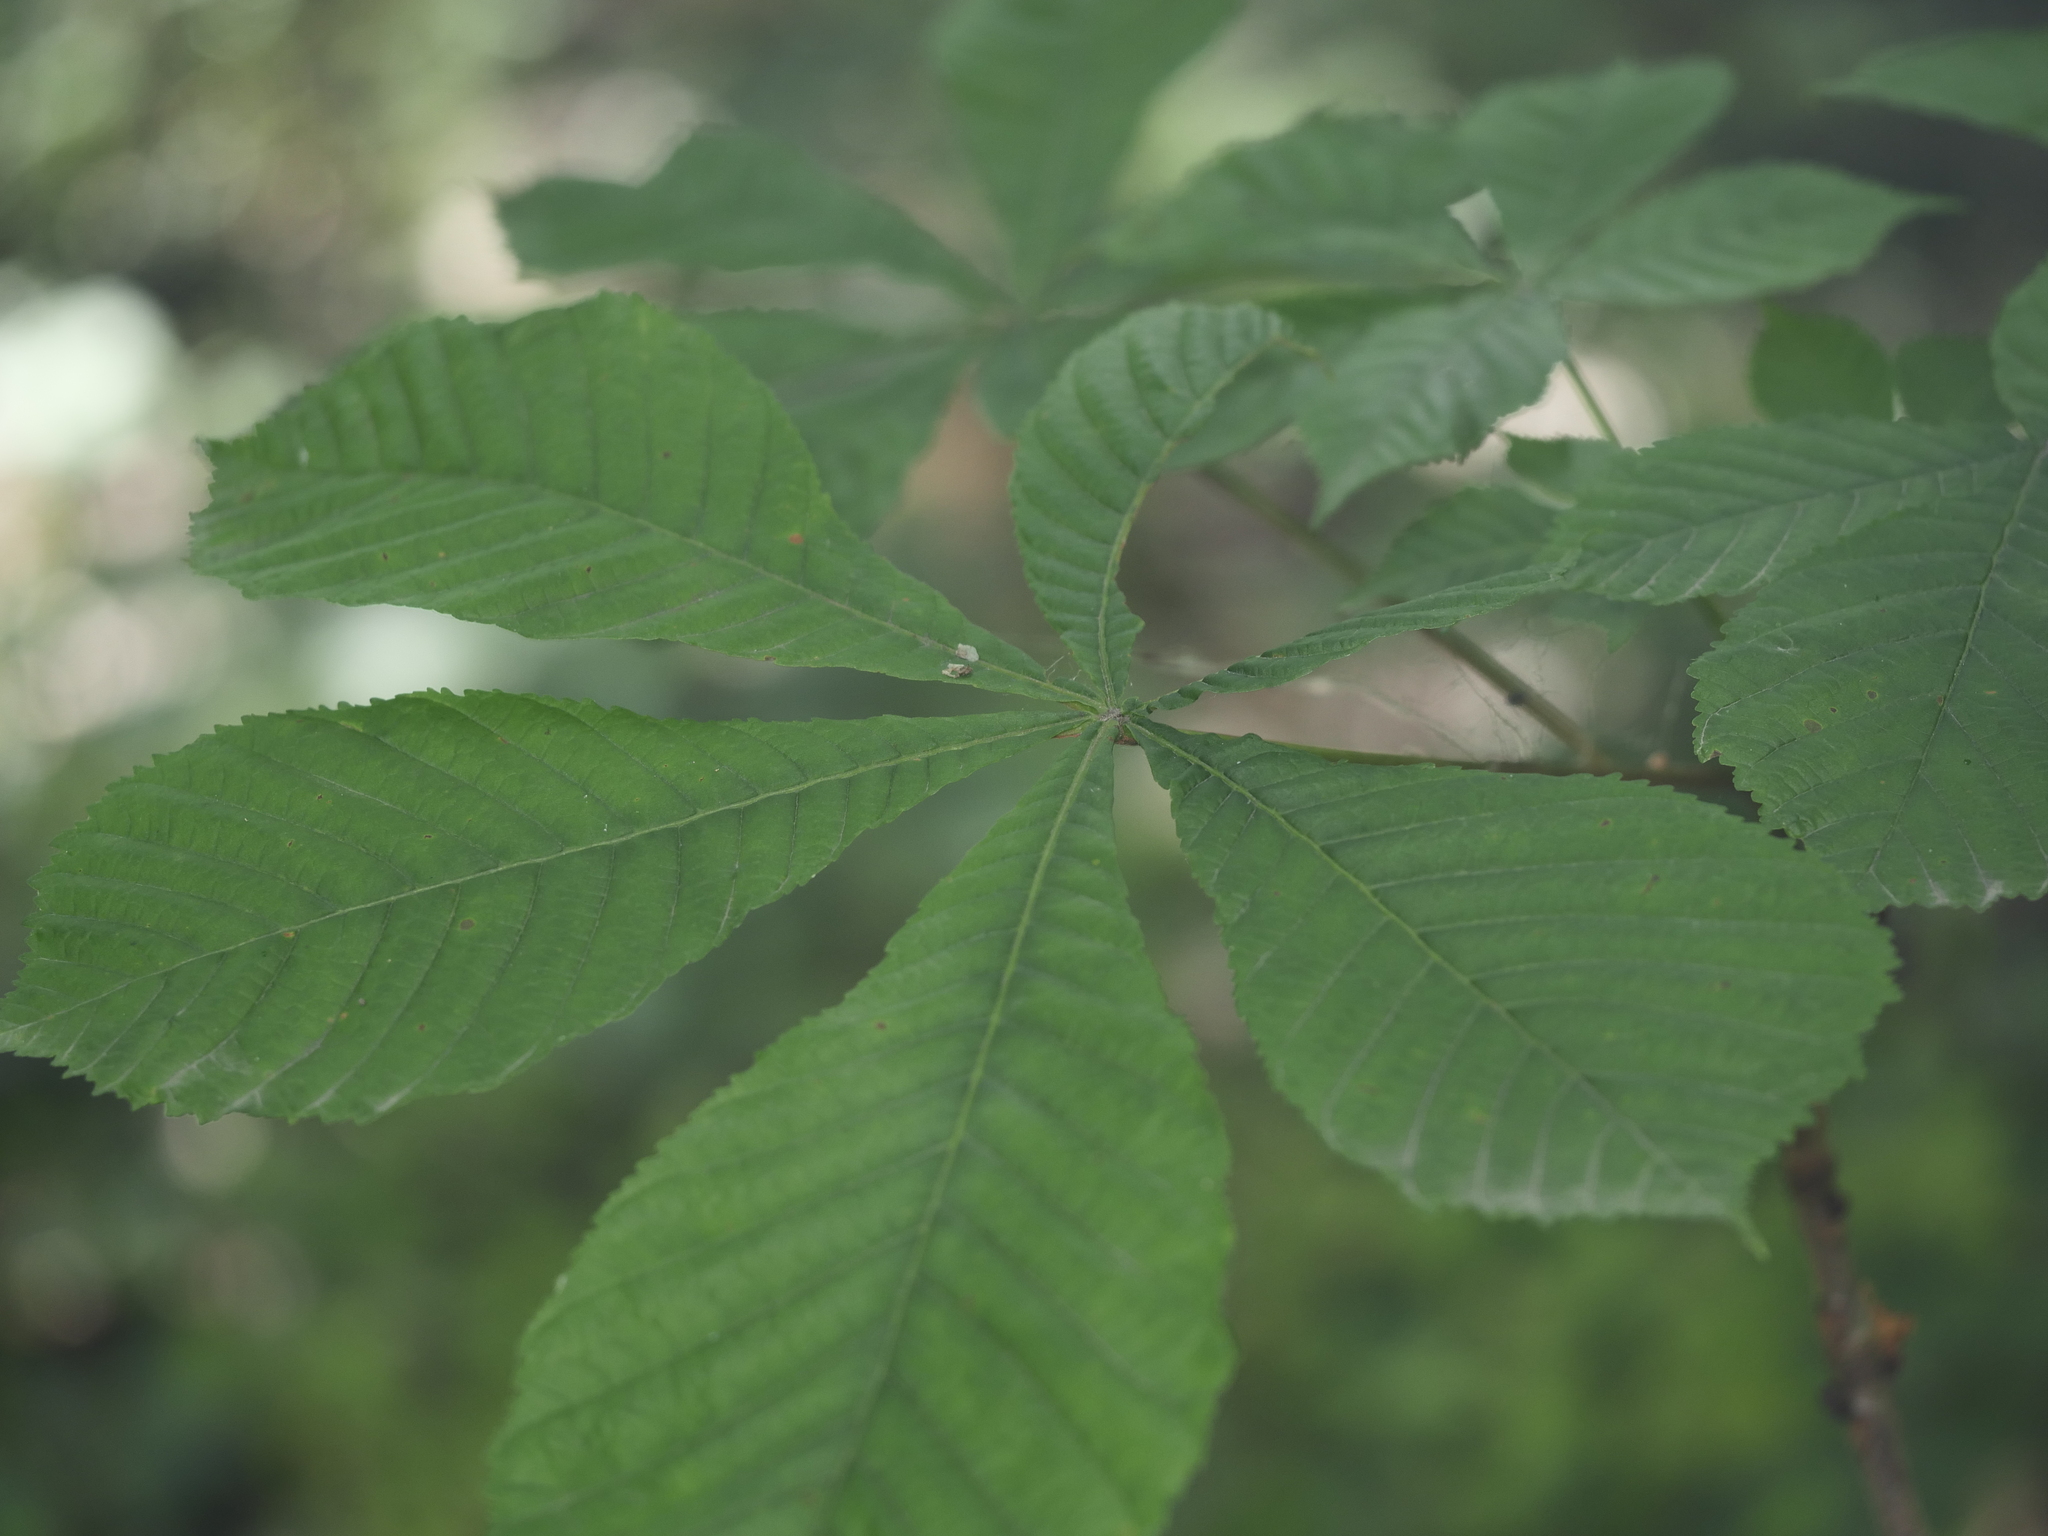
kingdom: Plantae
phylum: Tracheophyta
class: Magnoliopsida
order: Sapindales
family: Sapindaceae
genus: Aesculus
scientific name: Aesculus hippocastanum
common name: Horse-chestnut
